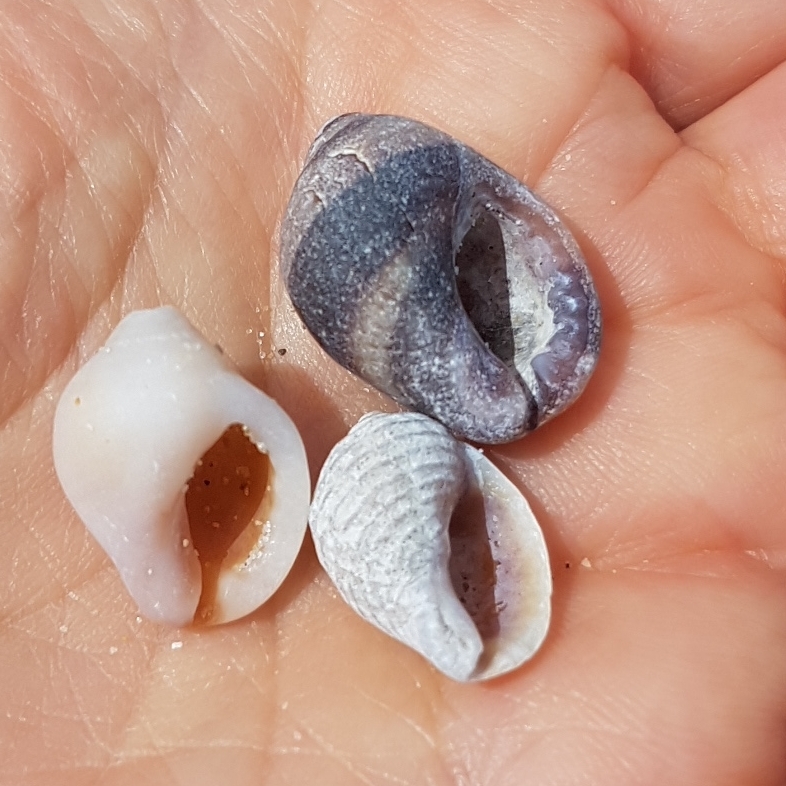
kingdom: Animalia
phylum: Mollusca
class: Gastropoda
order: Neogastropoda
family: Muricidae
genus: Nucella
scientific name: Nucella lapillus
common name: Dog whelk
